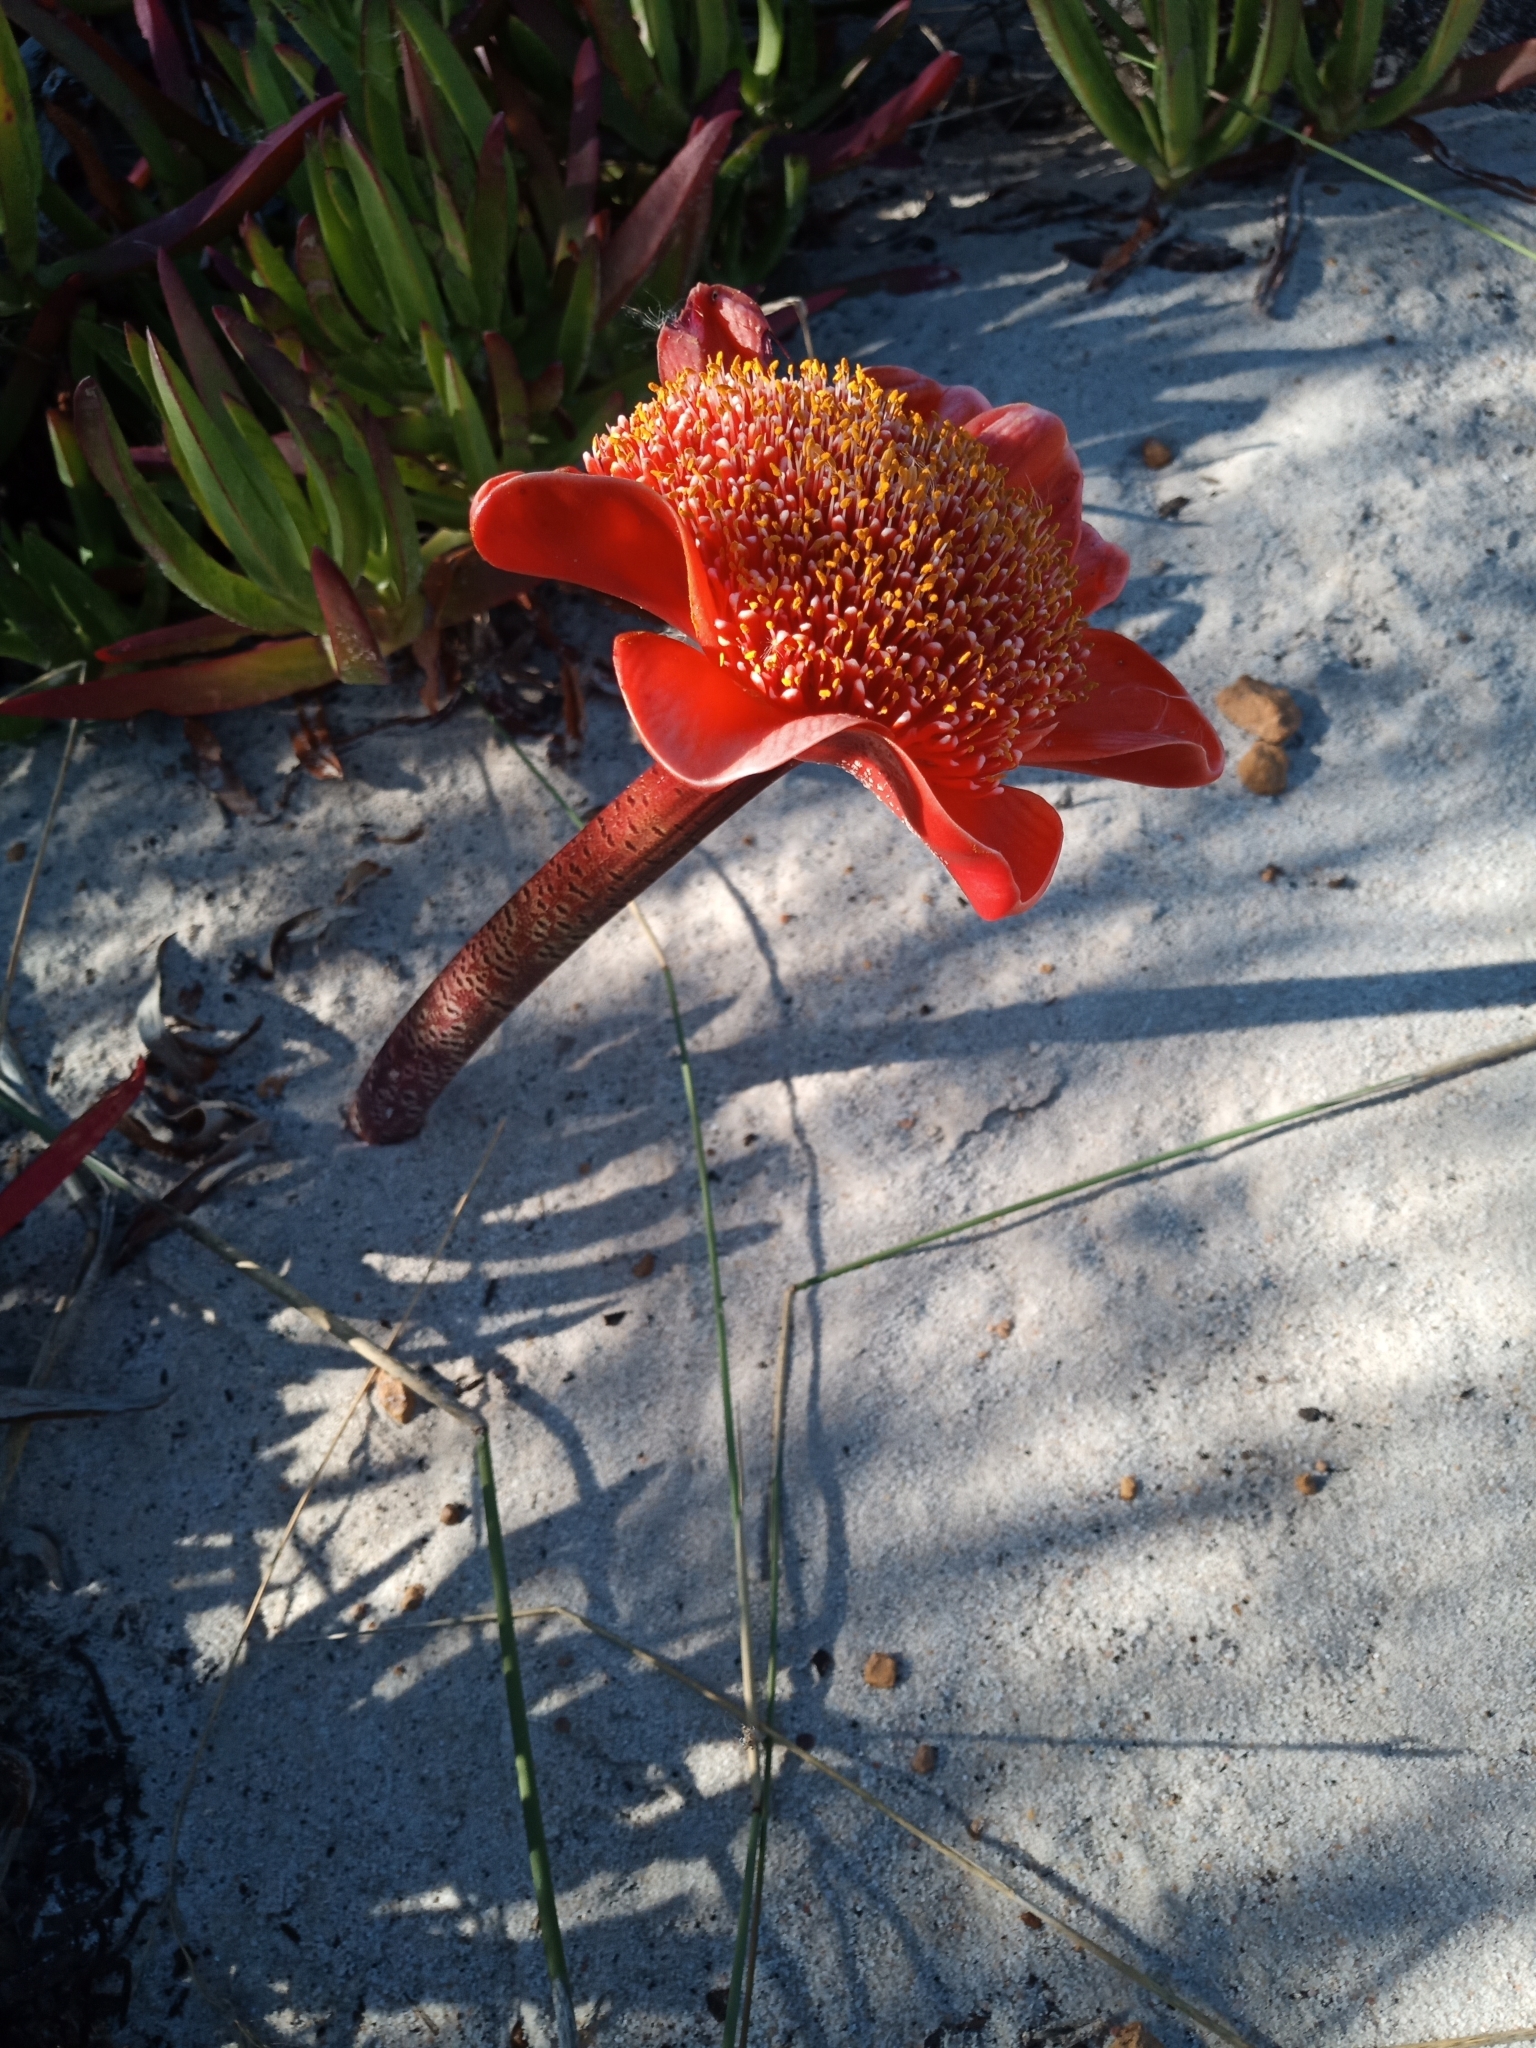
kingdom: Plantae
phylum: Tracheophyta
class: Liliopsida
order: Asparagales
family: Amaryllidaceae
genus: Haemanthus
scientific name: Haemanthus coccineus
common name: Cape-tulip
